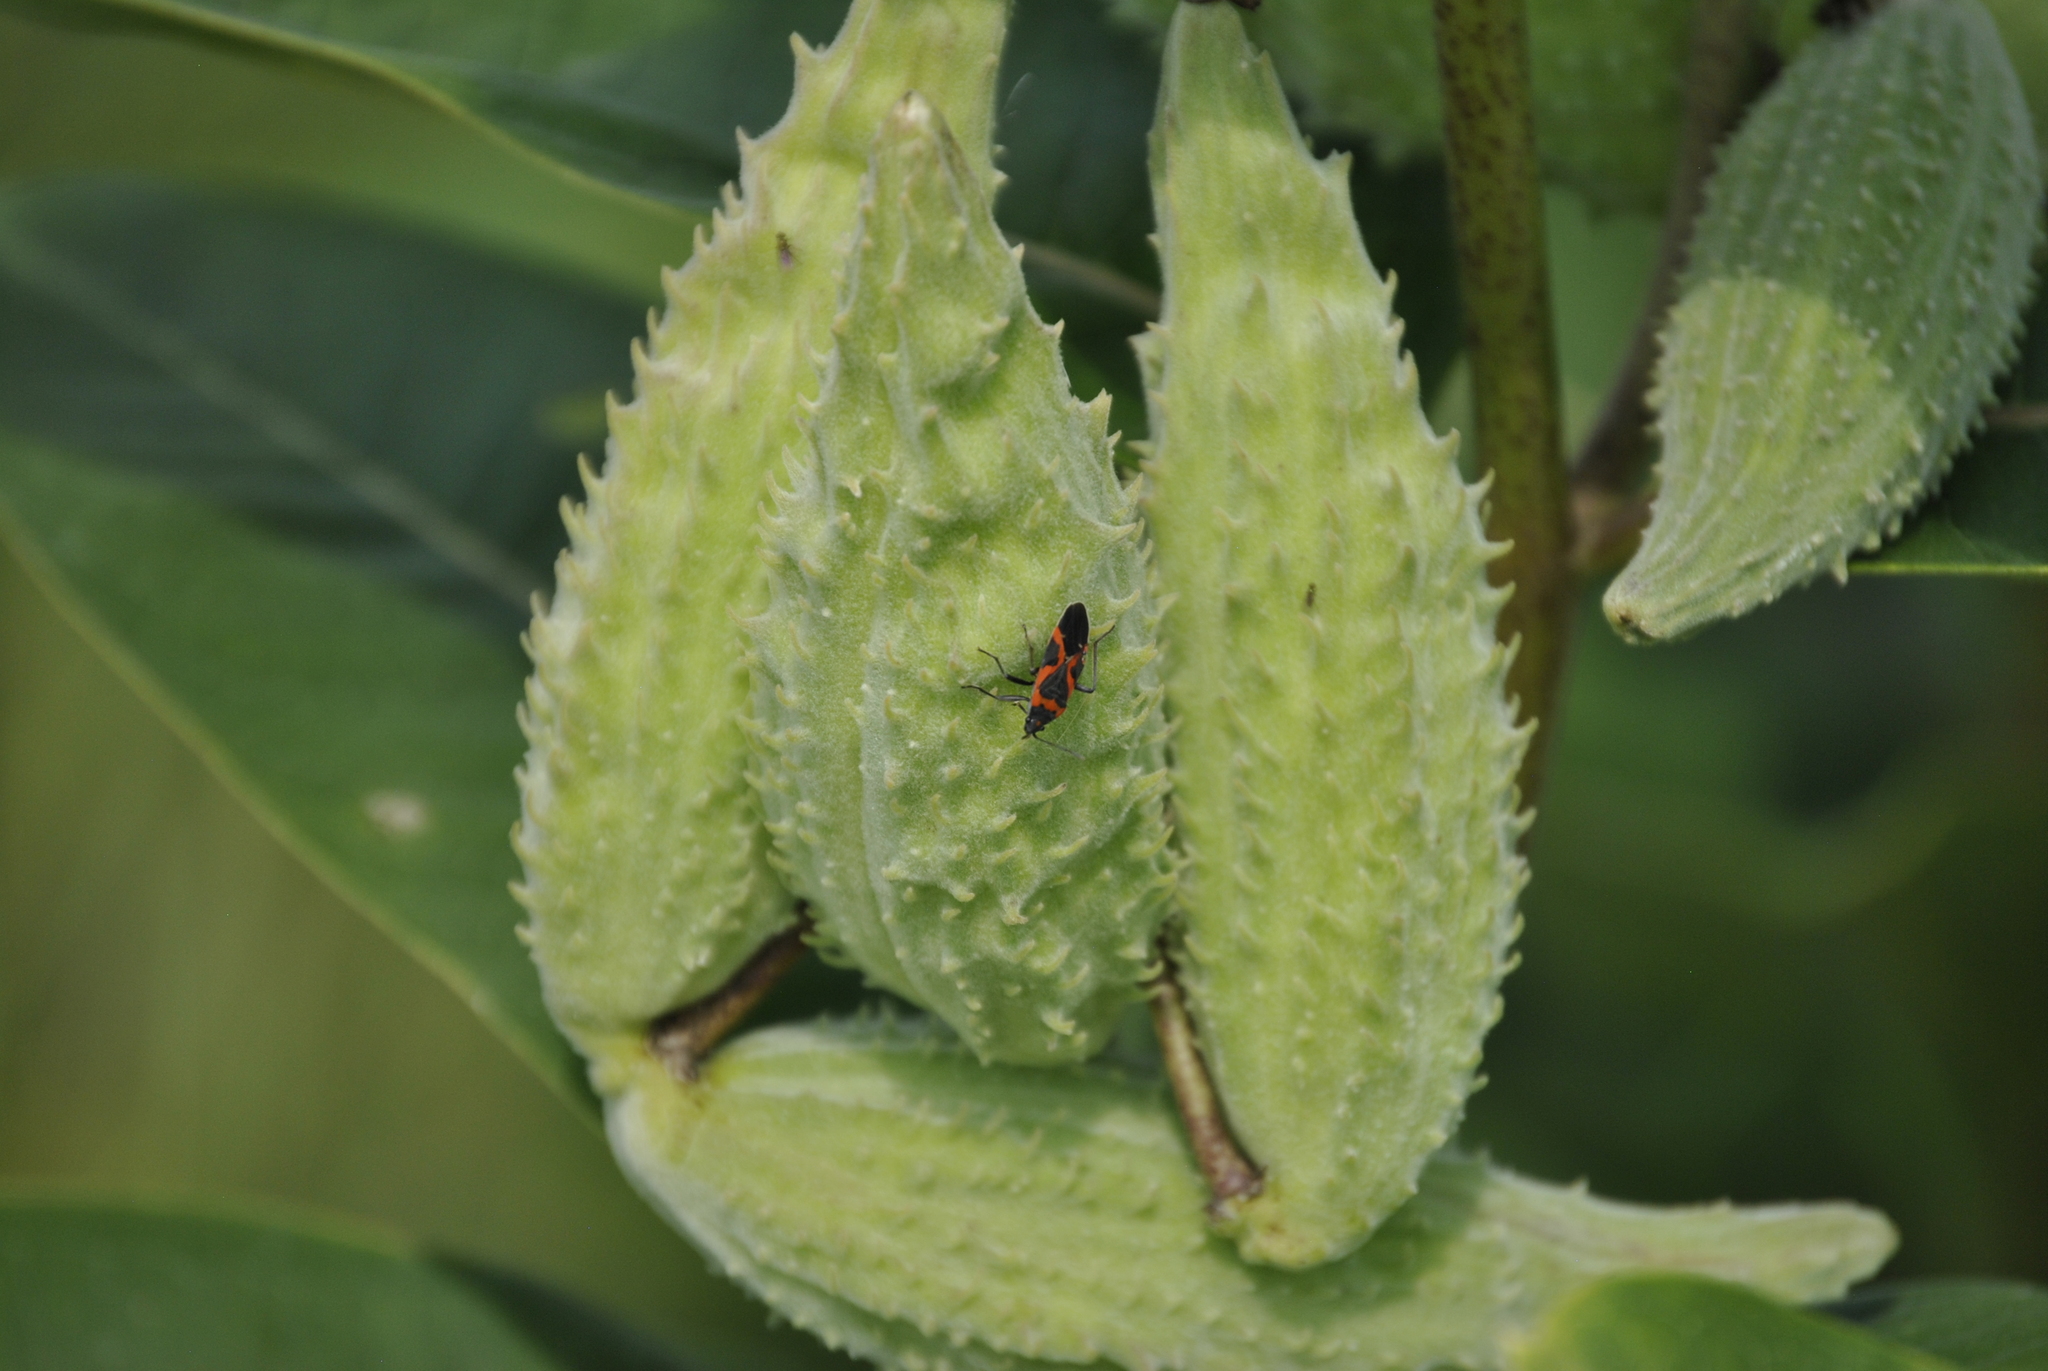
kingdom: Animalia
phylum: Arthropoda
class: Insecta
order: Hemiptera
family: Lygaeidae
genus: Lygaeus
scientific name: Lygaeus kalmii
